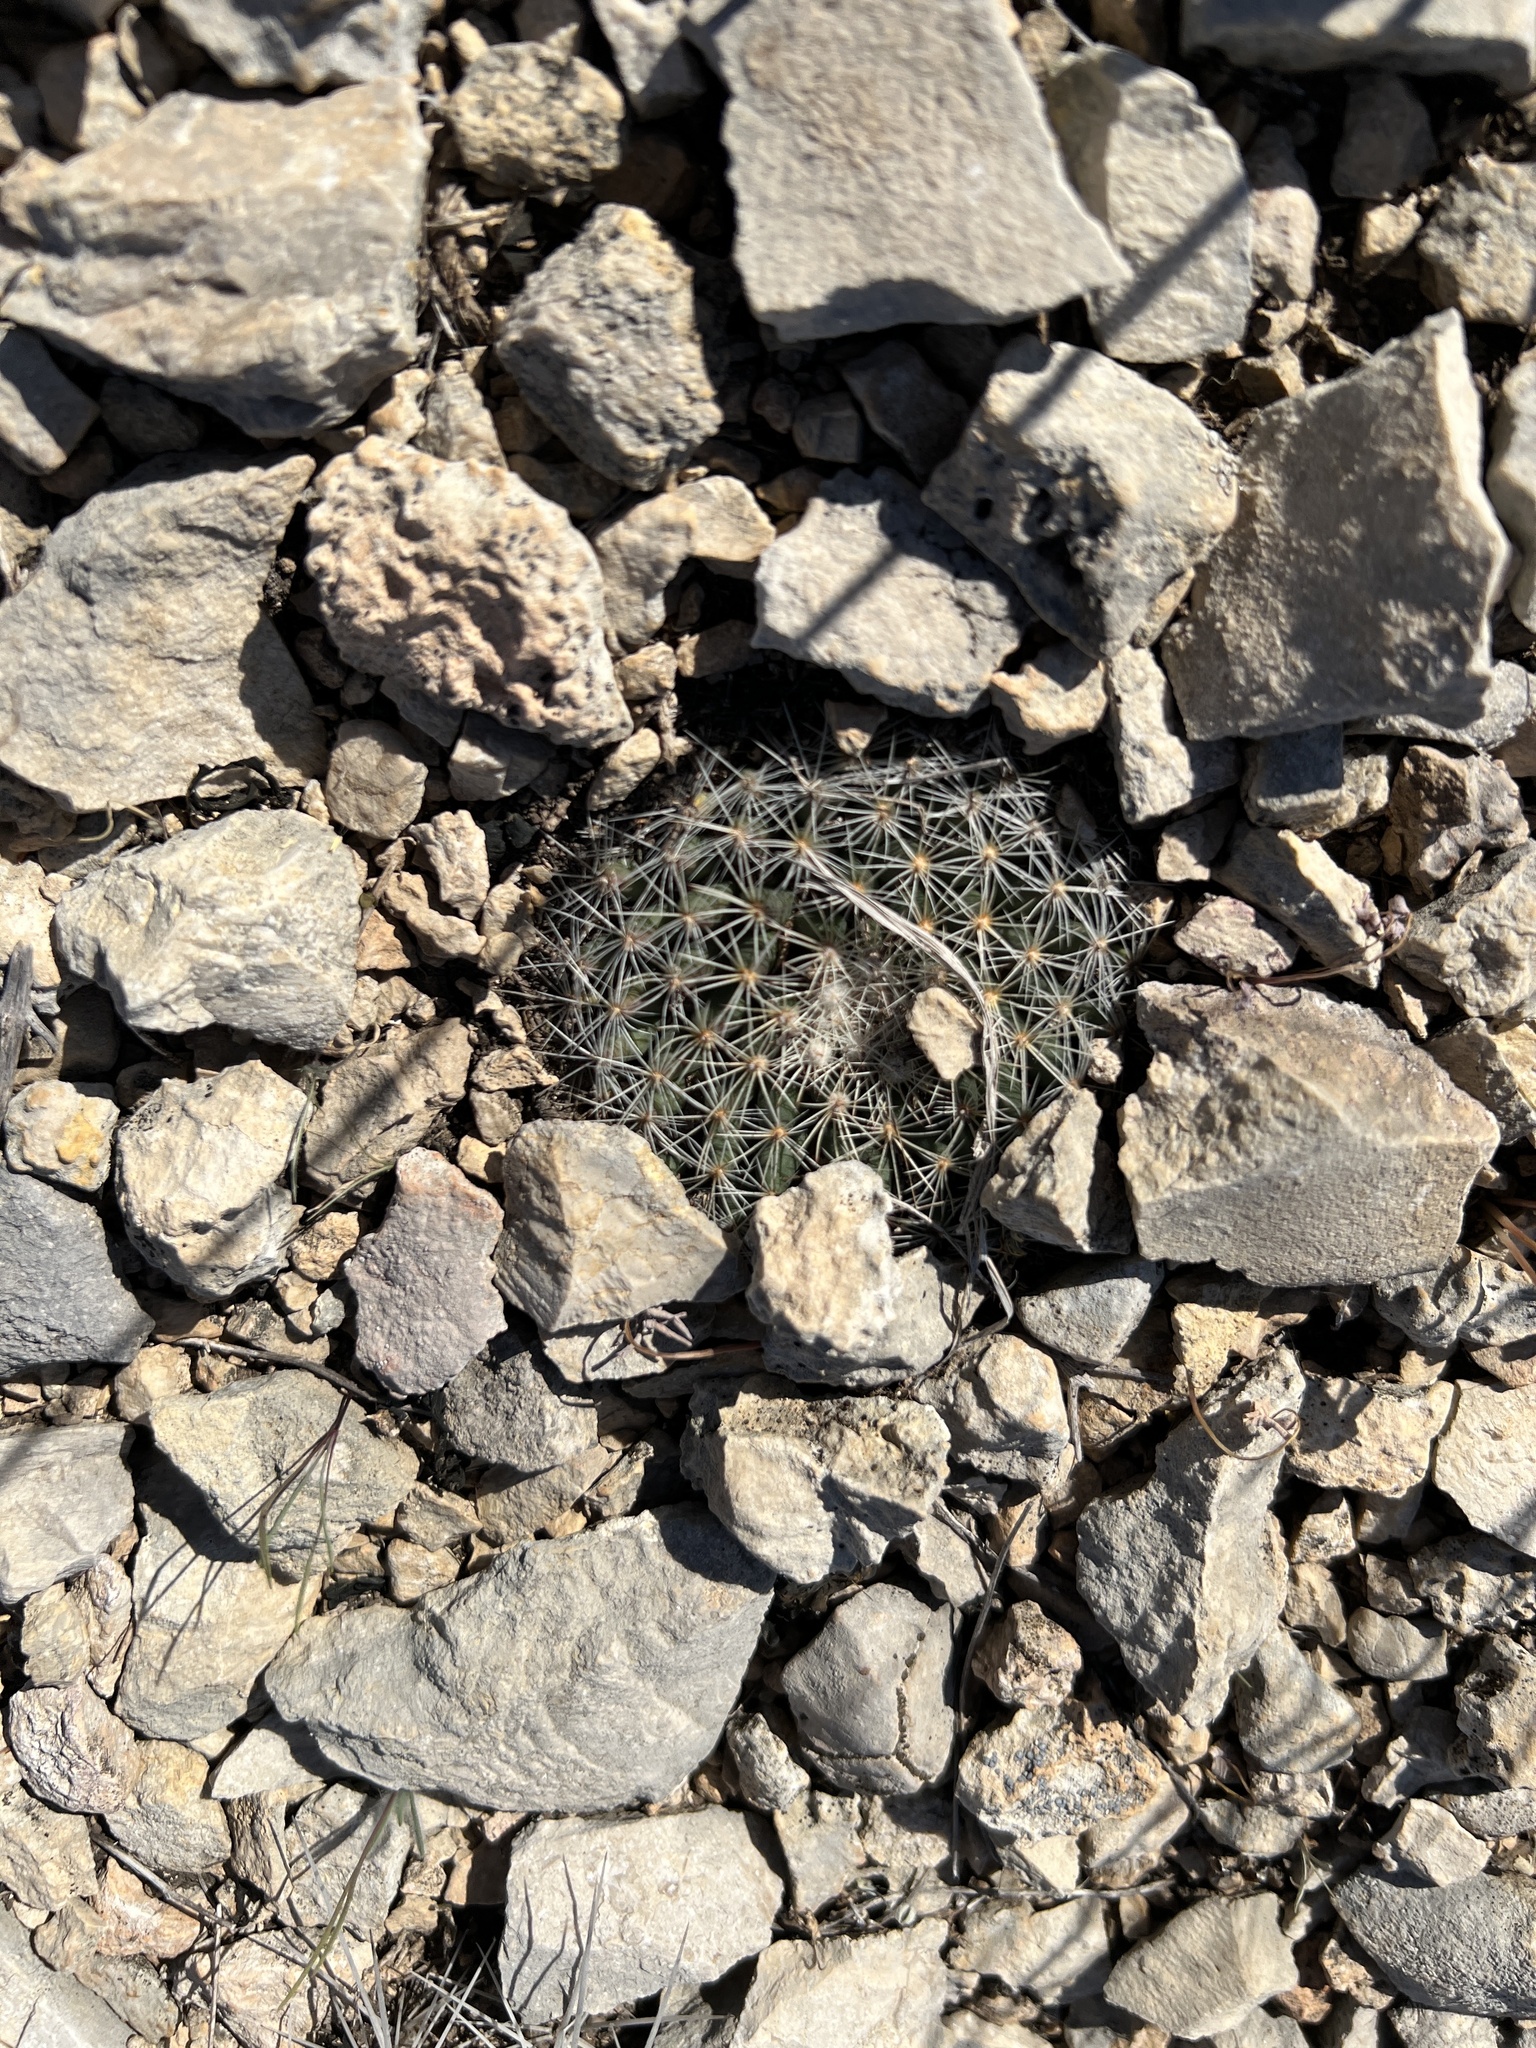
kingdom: Plantae
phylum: Tracheophyta
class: Magnoliopsida
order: Caryophyllales
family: Cactaceae
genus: Mammillaria
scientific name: Mammillaria heyderi
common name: Little nipple cactus
